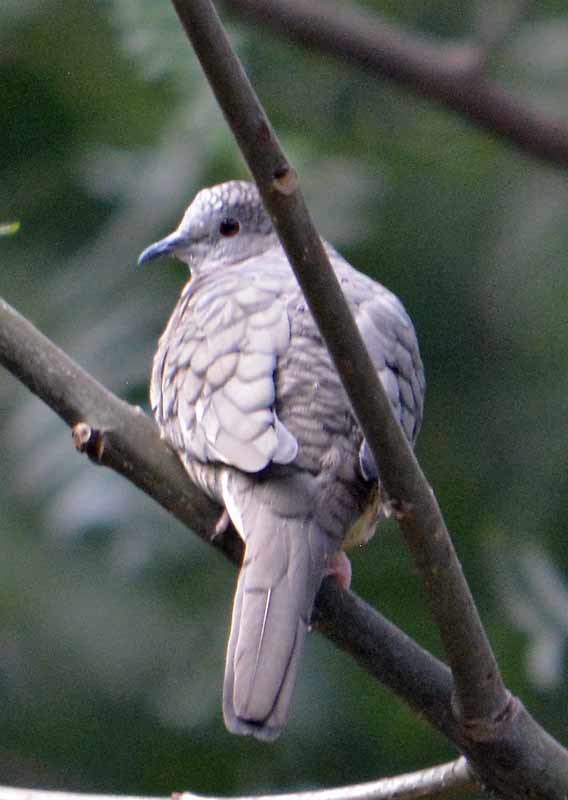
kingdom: Animalia
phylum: Chordata
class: Aves
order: Columbiformes
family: Columbidae
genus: Columbina
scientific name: Columbina inca
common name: Inca dove
